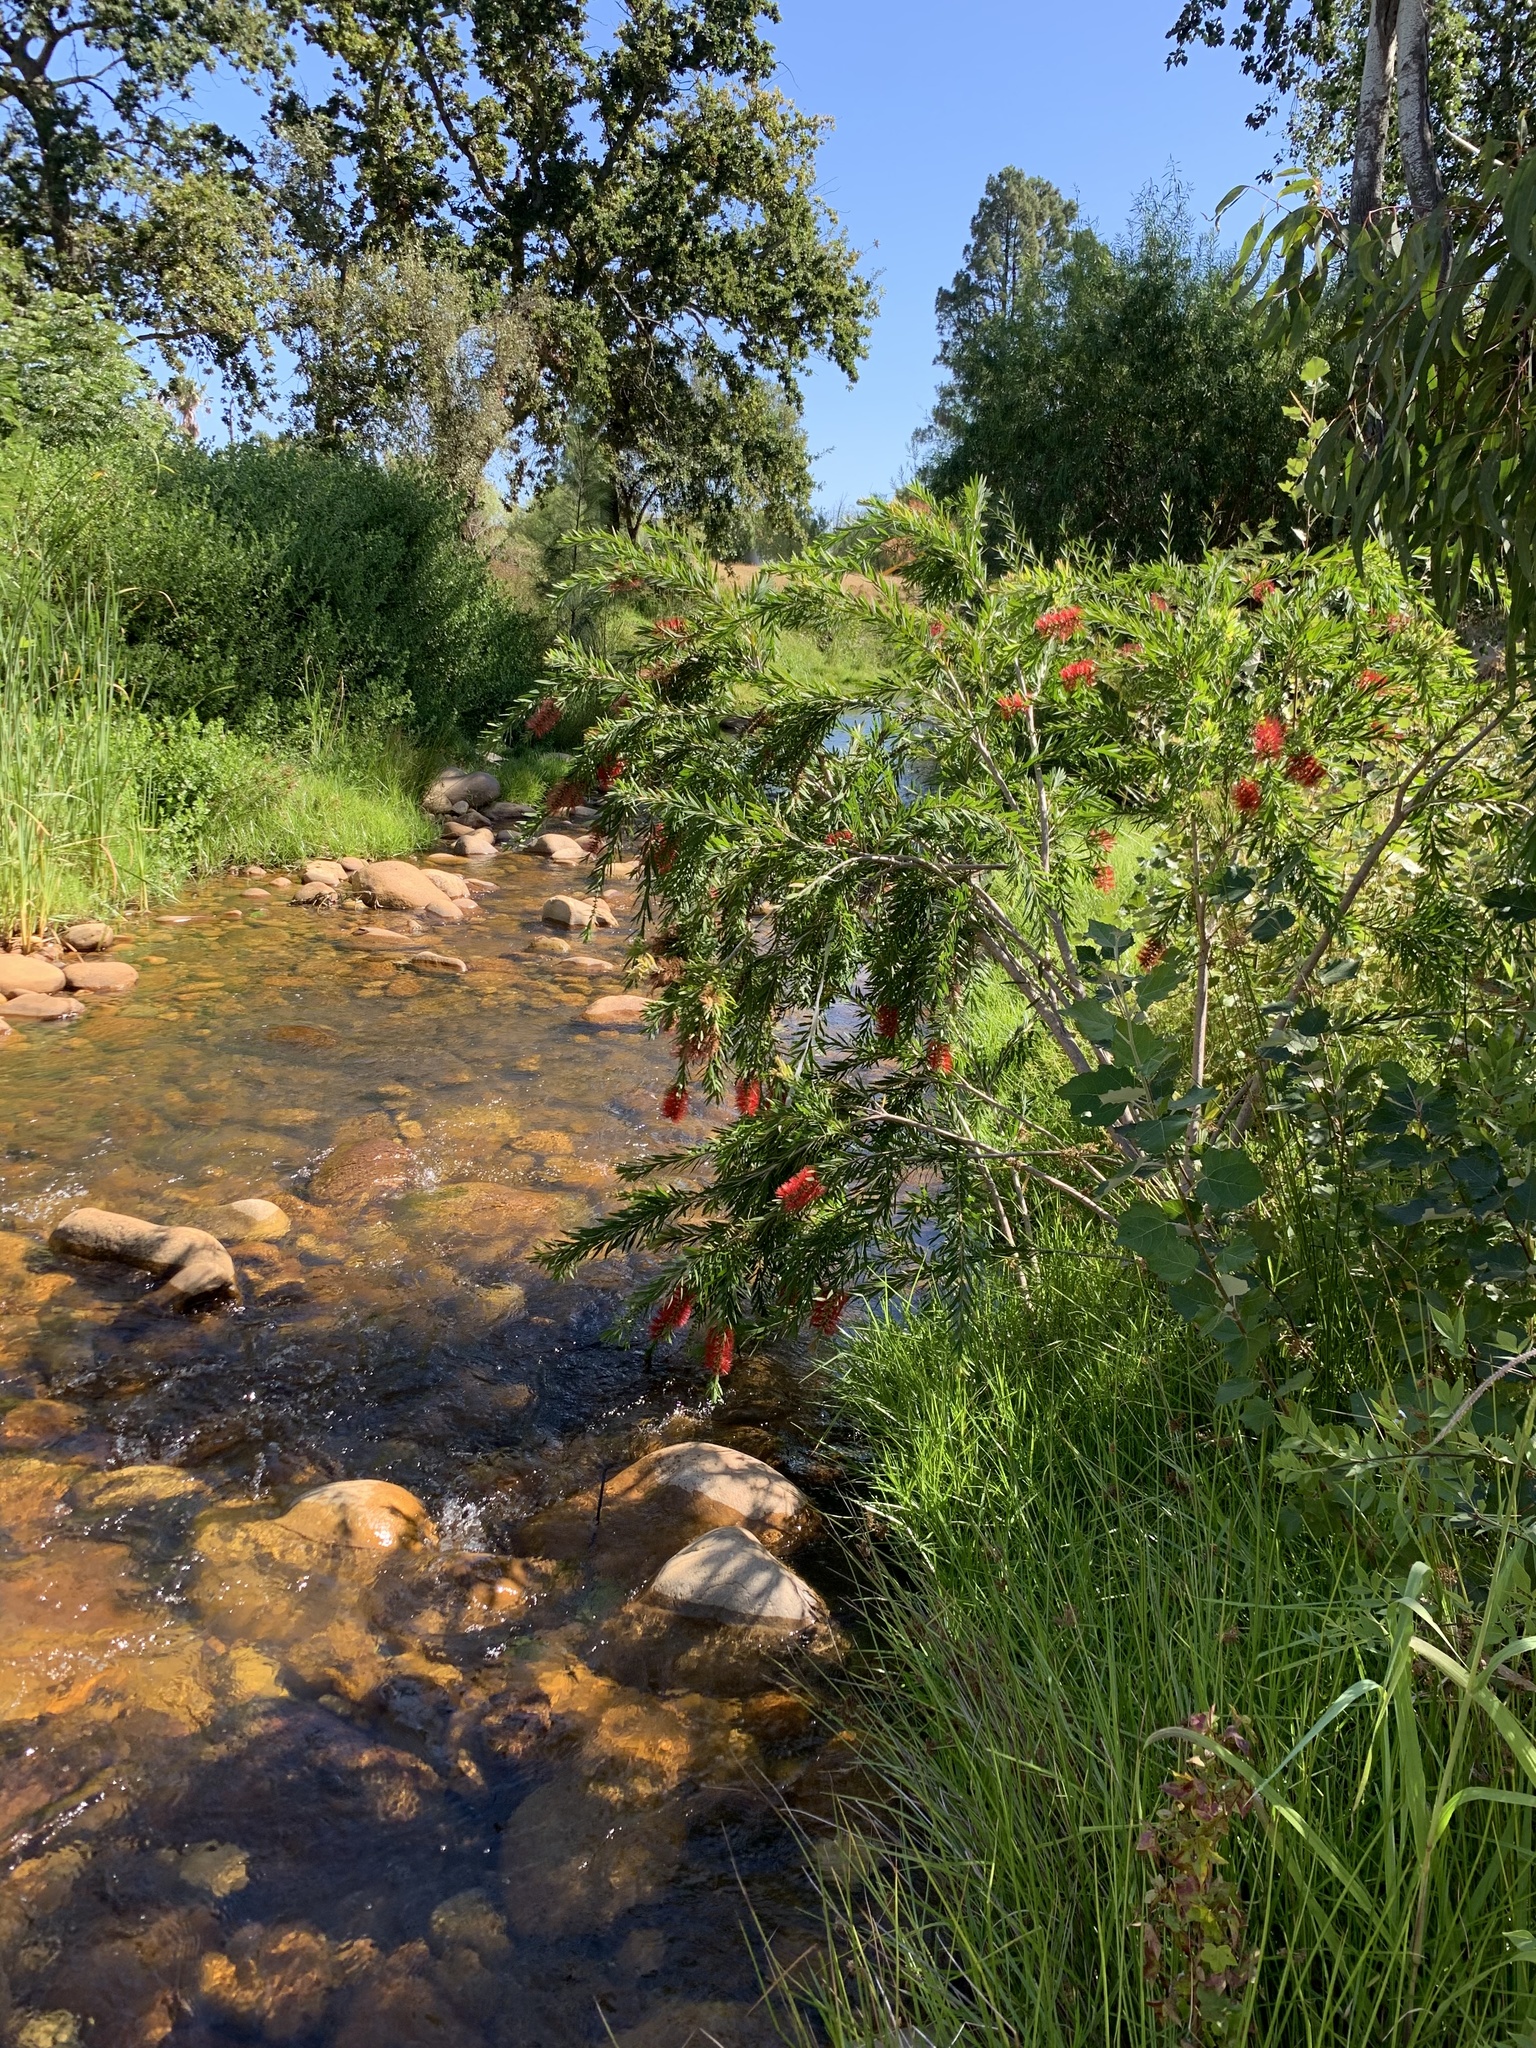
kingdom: Plantae
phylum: Tracheophyta
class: Magnoliopsida
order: Myrtales
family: Myrtaceae
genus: Callistemon
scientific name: Callistemon viminalis
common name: Drooping bottlebrush
